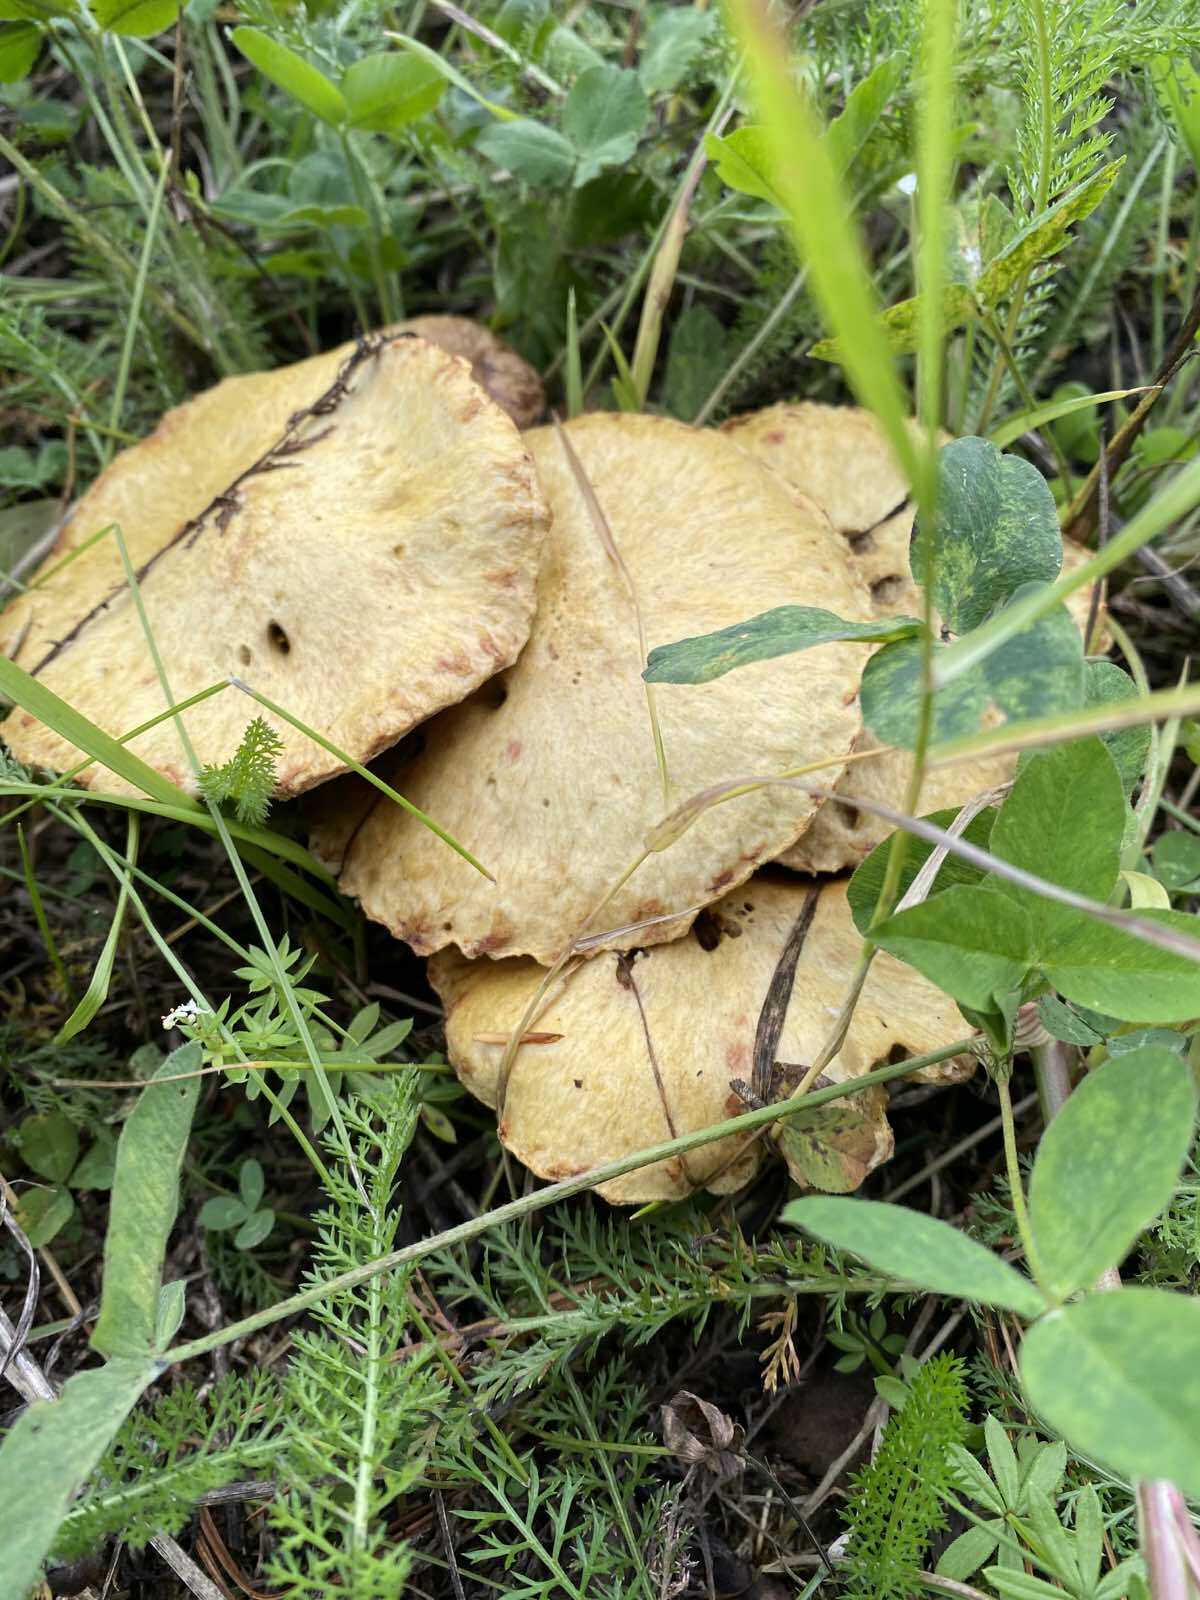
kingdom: Fungi
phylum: Basidiomycota
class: Agaricomycetes
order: Boletales
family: Suillaceae
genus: Suillus
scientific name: Suillus americanus
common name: Chicken fat mushroom
